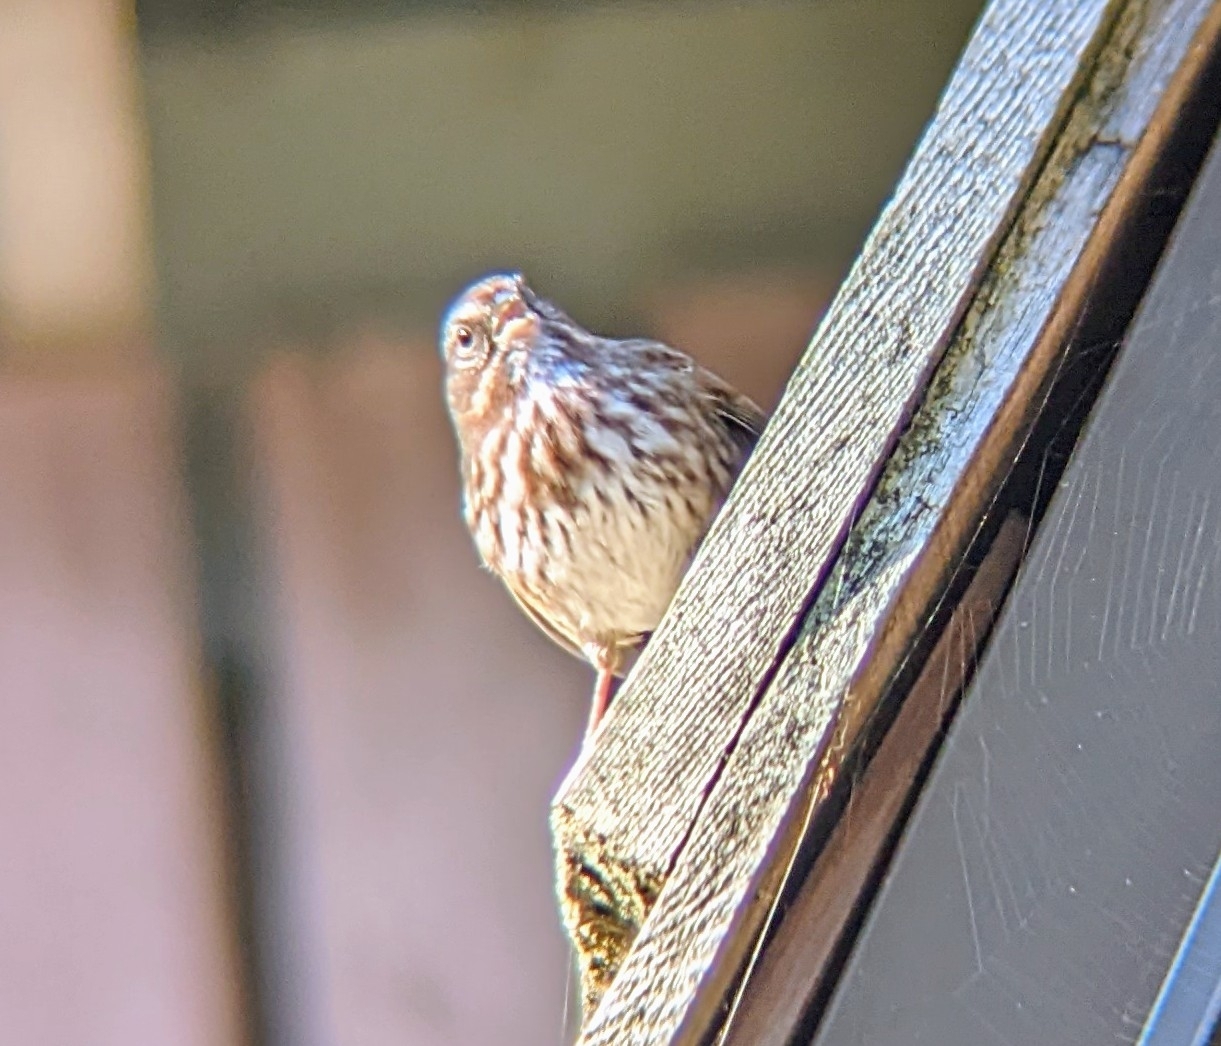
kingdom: Animalia
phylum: Chordata
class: Aves
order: Passeriformes
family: Passerellidae
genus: Melospiza
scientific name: Melospiza melodia
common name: Song sparrow
